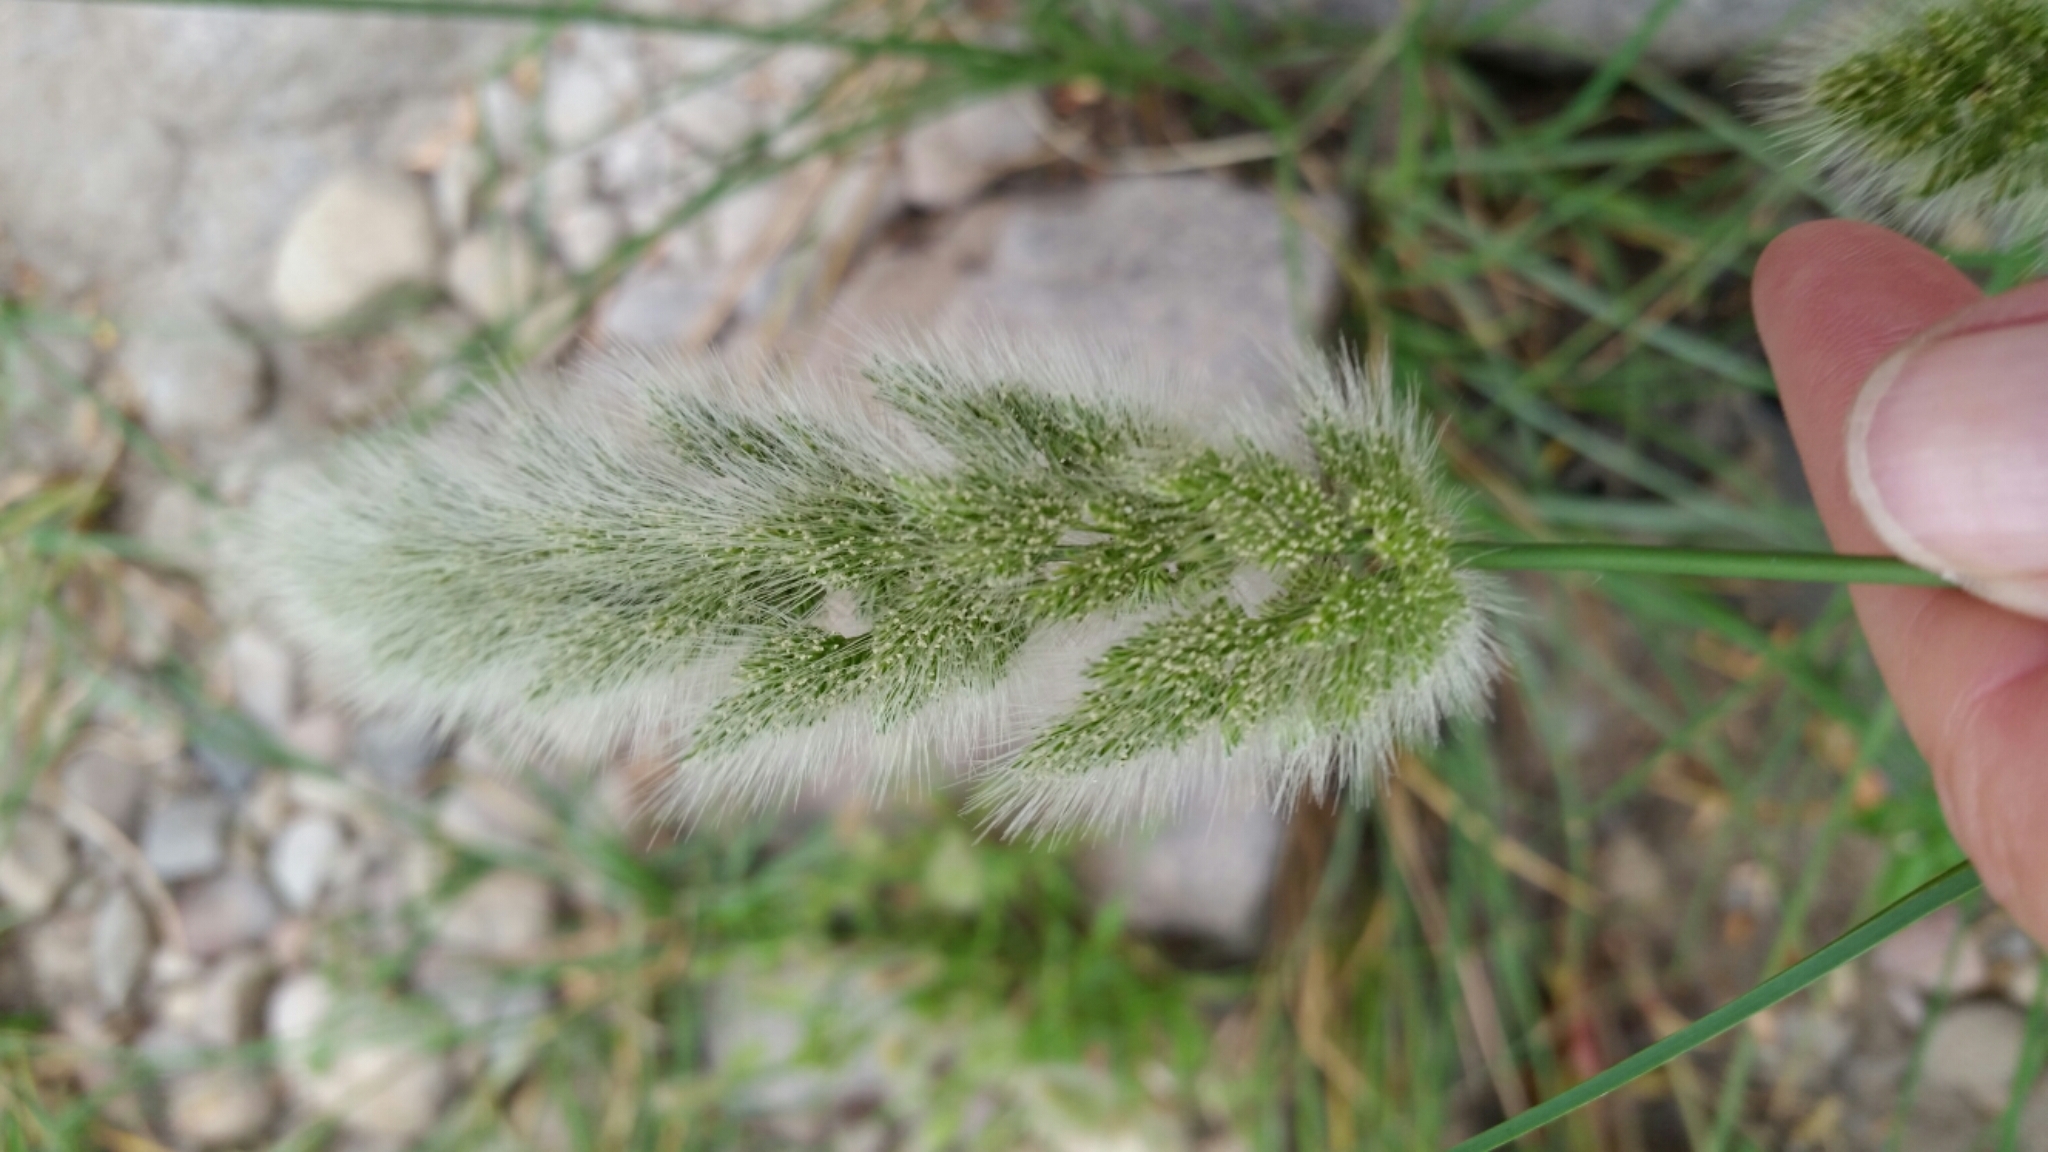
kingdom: Plantae
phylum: Tracheophyta
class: Liliopsida
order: Poales
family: Poaceae
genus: Polypogon
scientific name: Polypogon monspeliensis
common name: Annual rabbitsfoot grass
